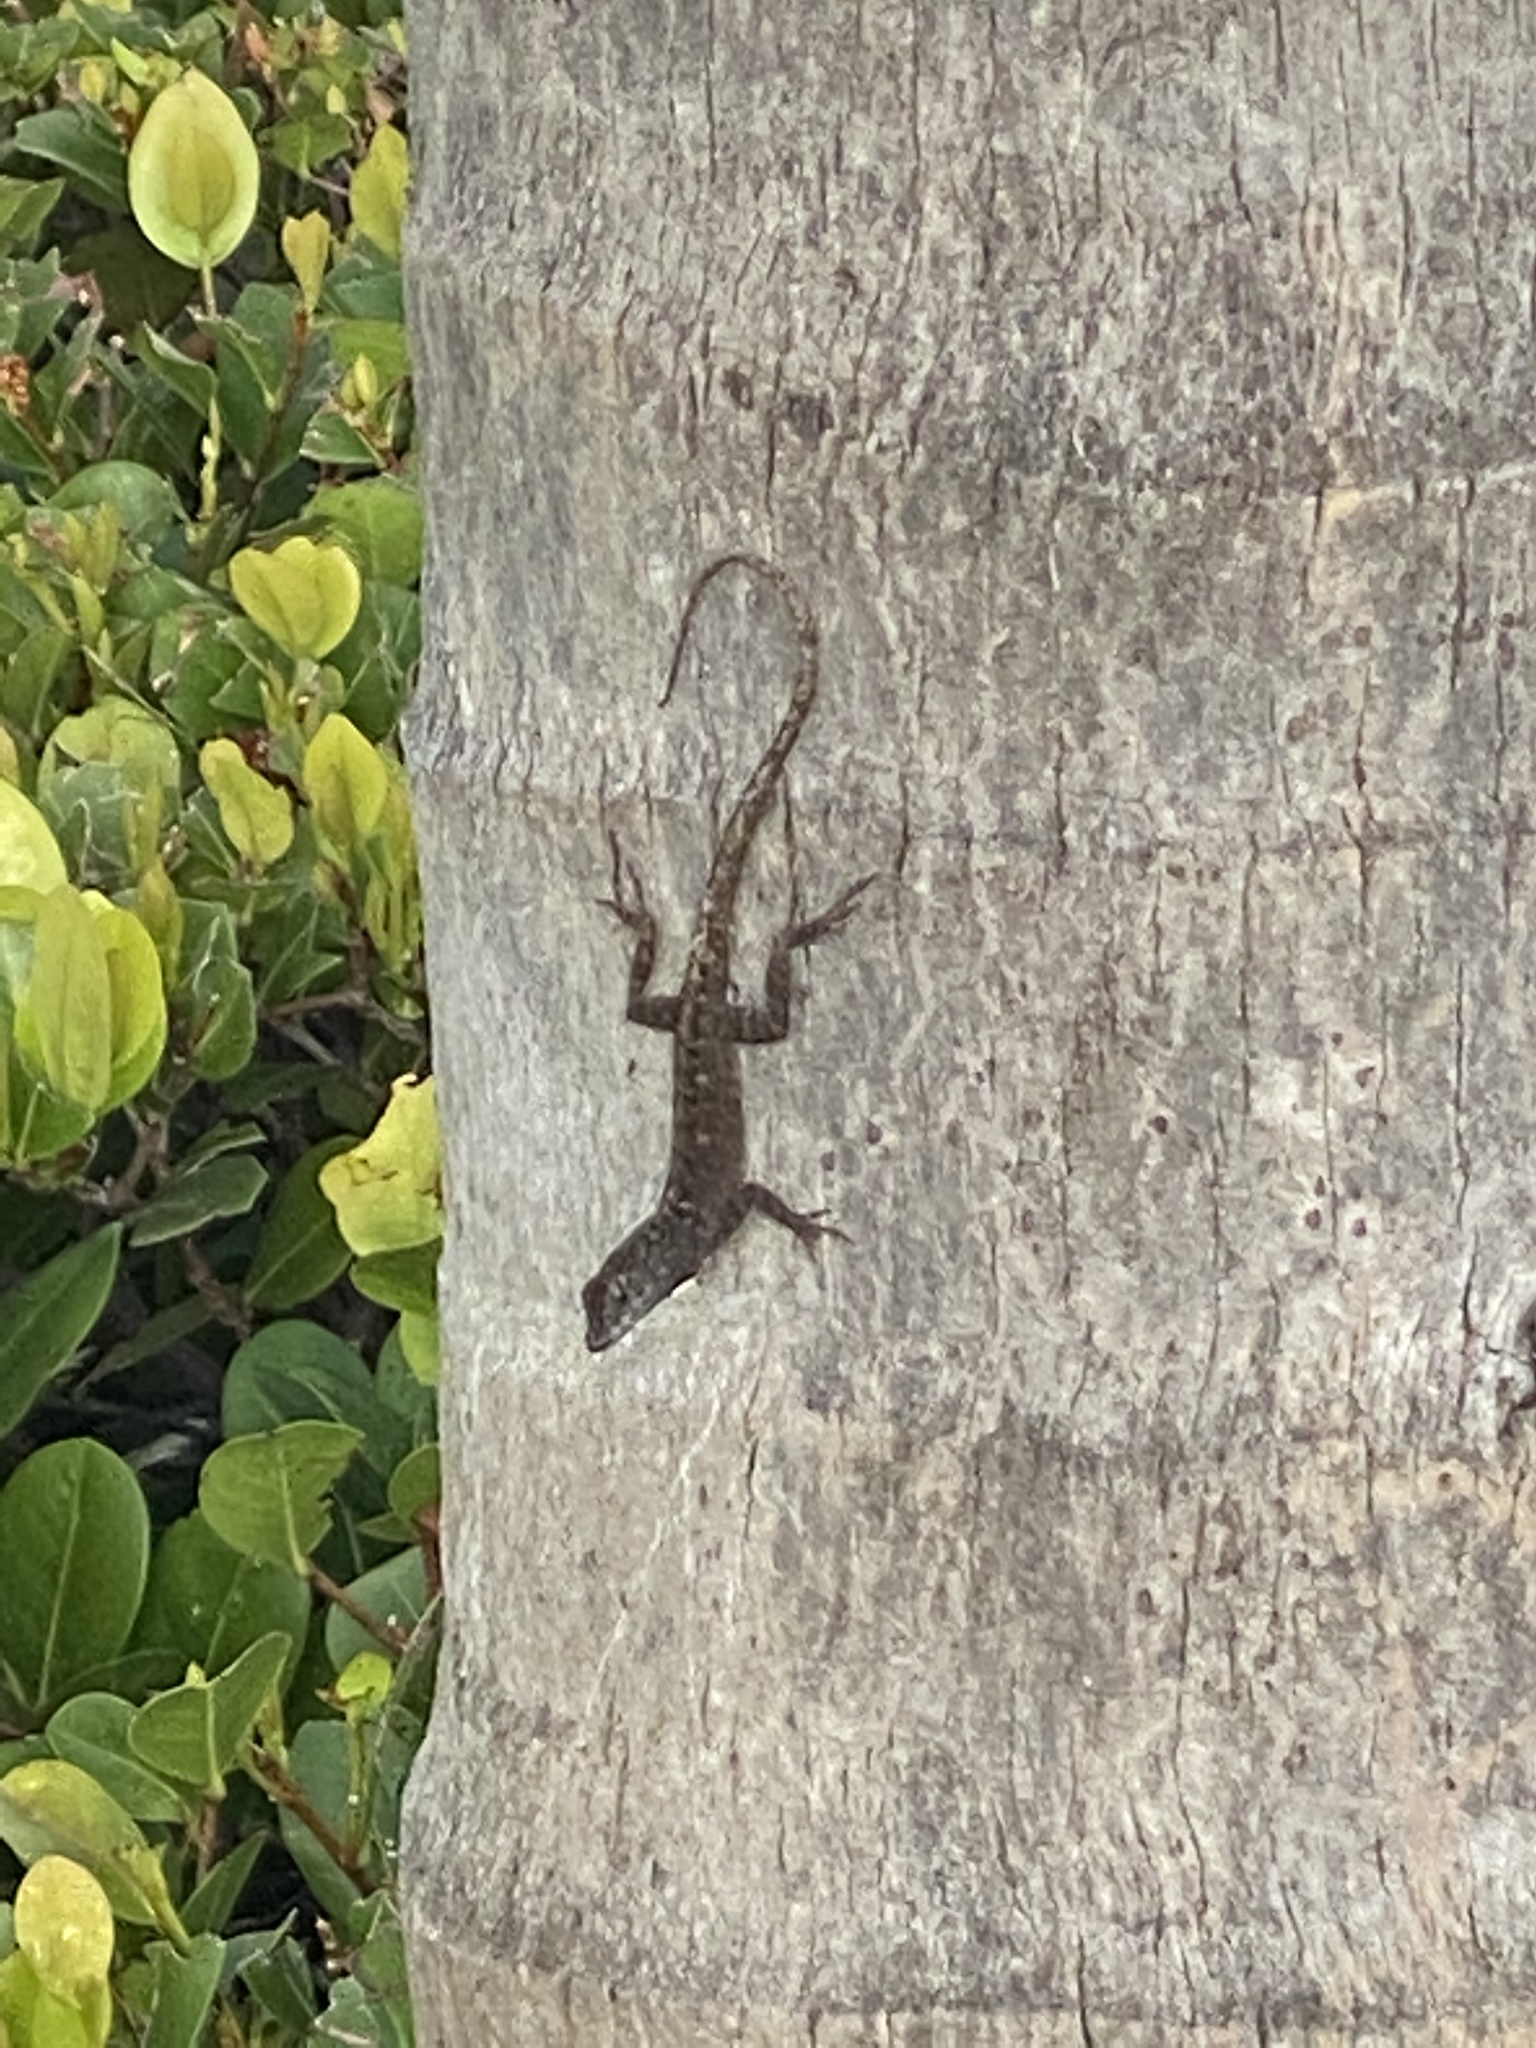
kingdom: Animalia
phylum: Chordata
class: Squamata
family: Dactyloidae
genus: Anolis
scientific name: Anolis sagrei
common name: Brown anole
